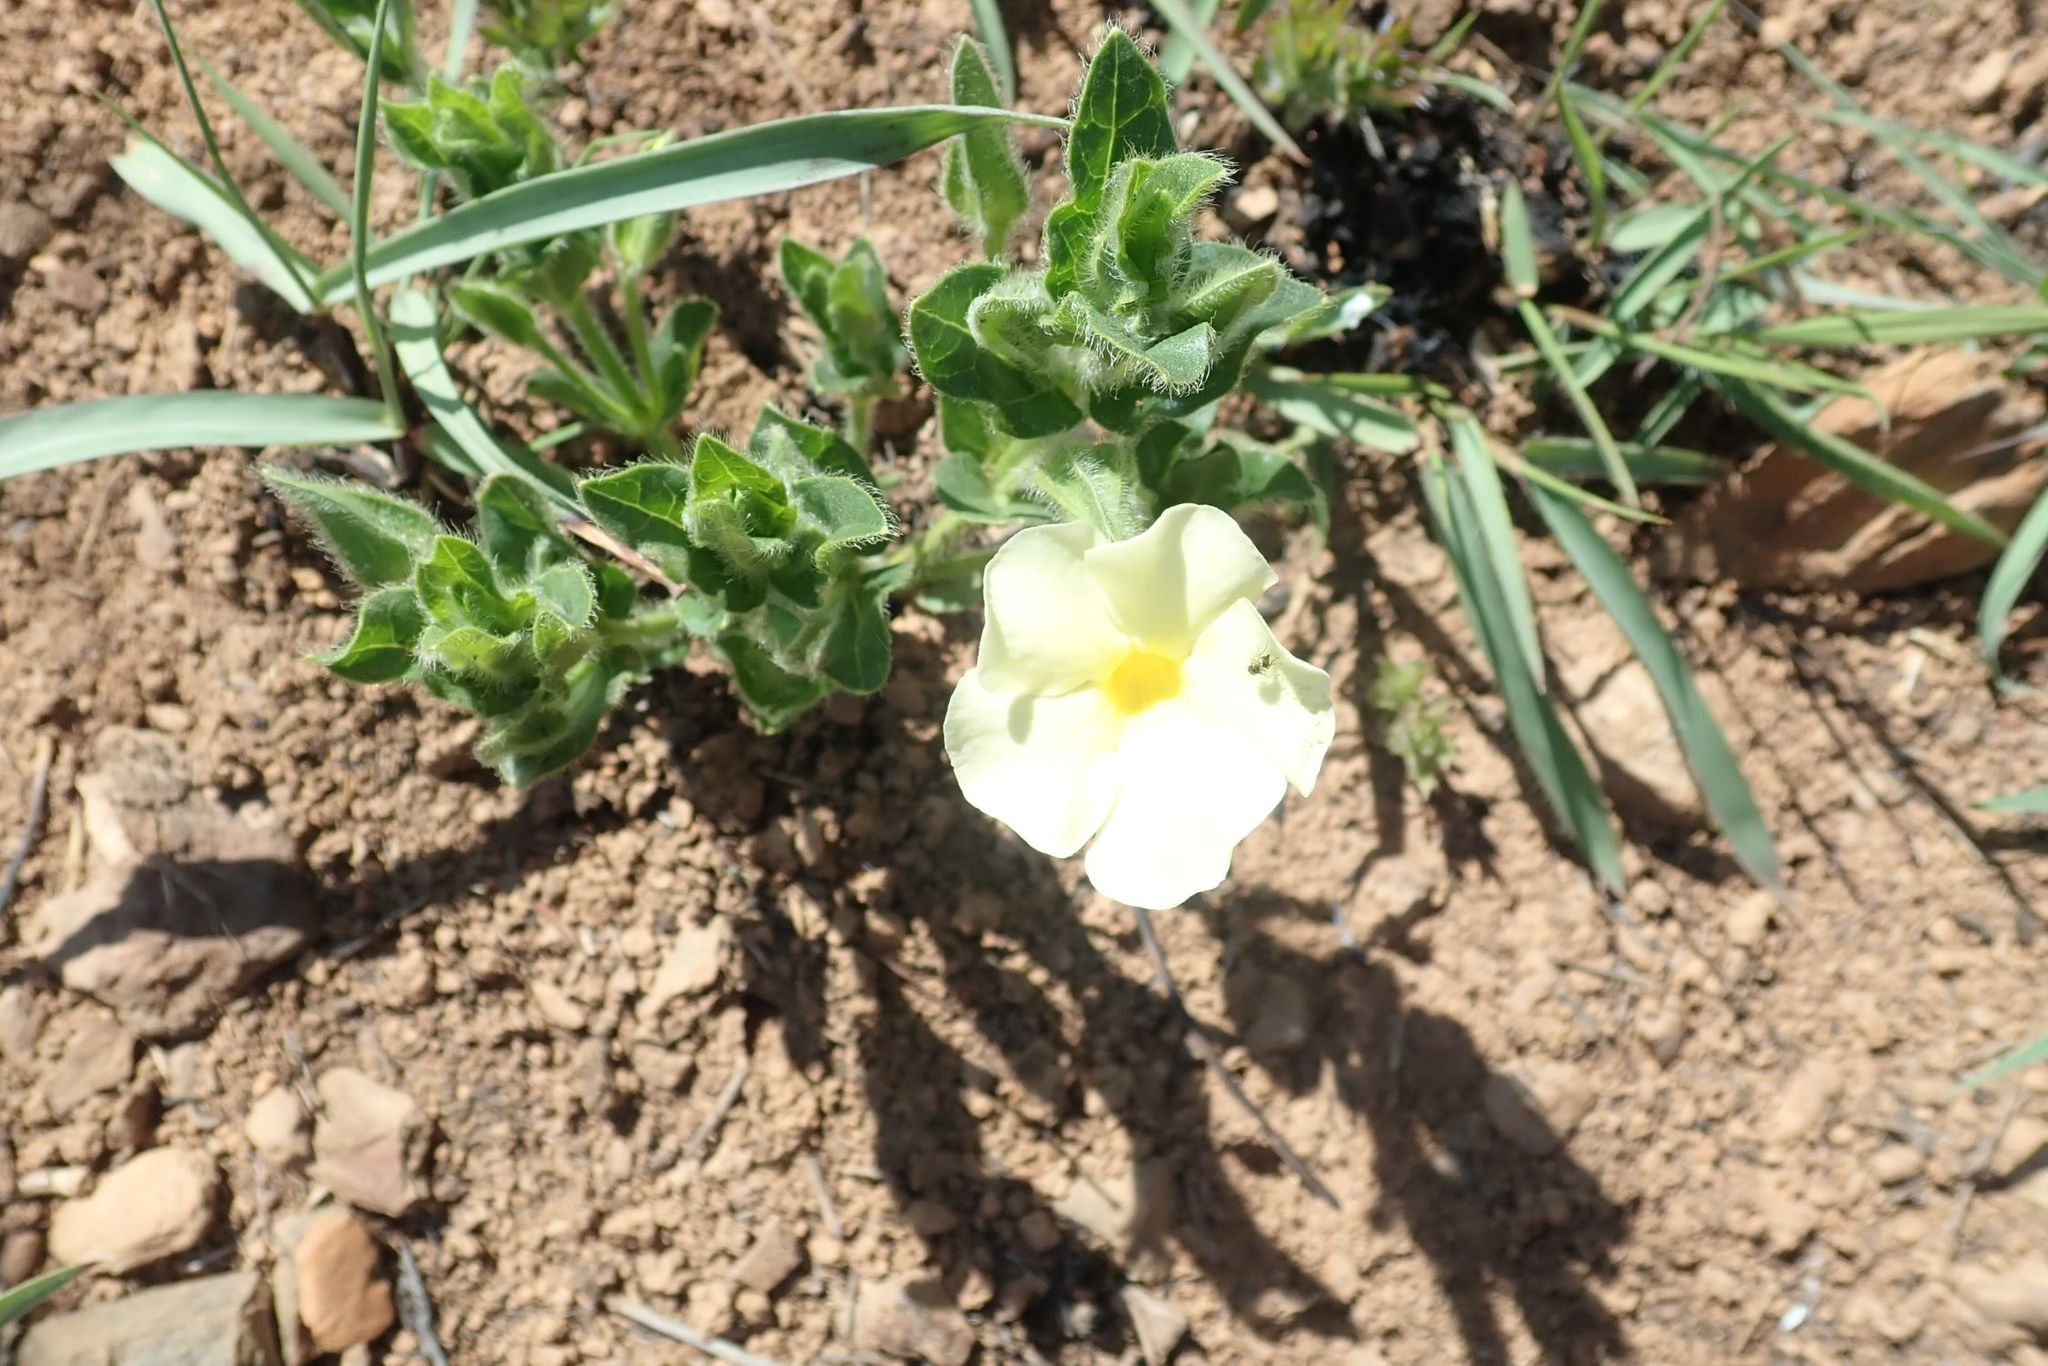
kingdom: Plantae
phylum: Tracheophyta
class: Magnoliopsida
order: Lamiales
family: Acanthaceae
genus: Thunbergia
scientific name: Thunbergia atriplicifolia
